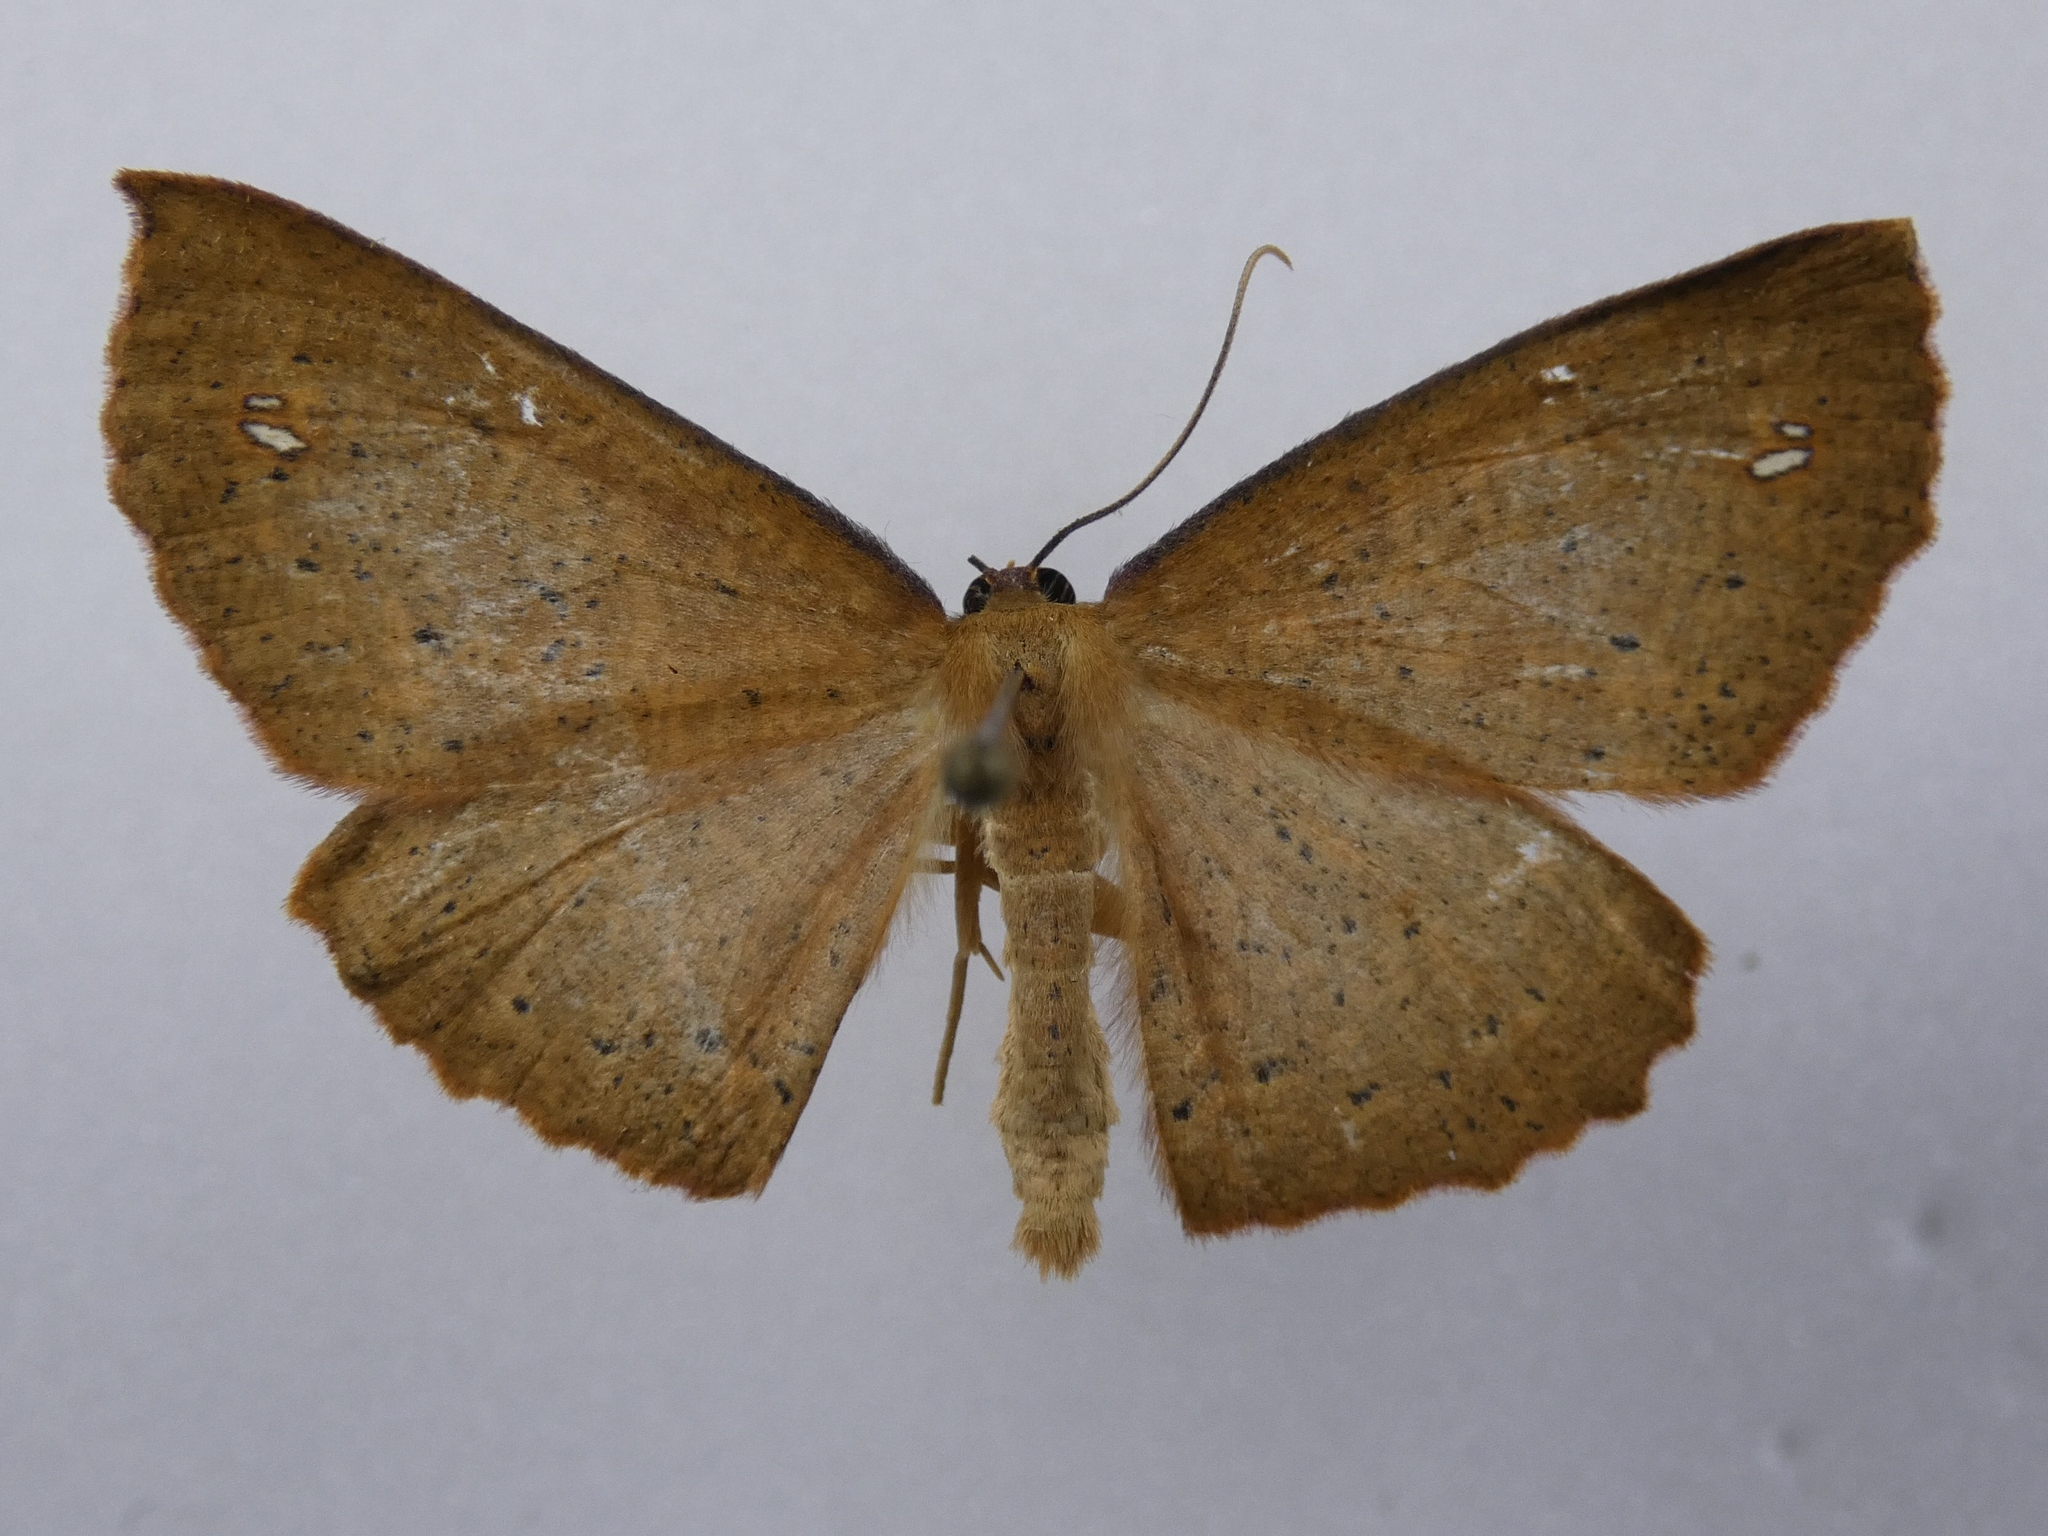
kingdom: Animalia
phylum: Arthropoda
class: Insecta
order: Lepidoptera
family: Geometridae
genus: Xyridacma
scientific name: Xyridacma alectoraria
